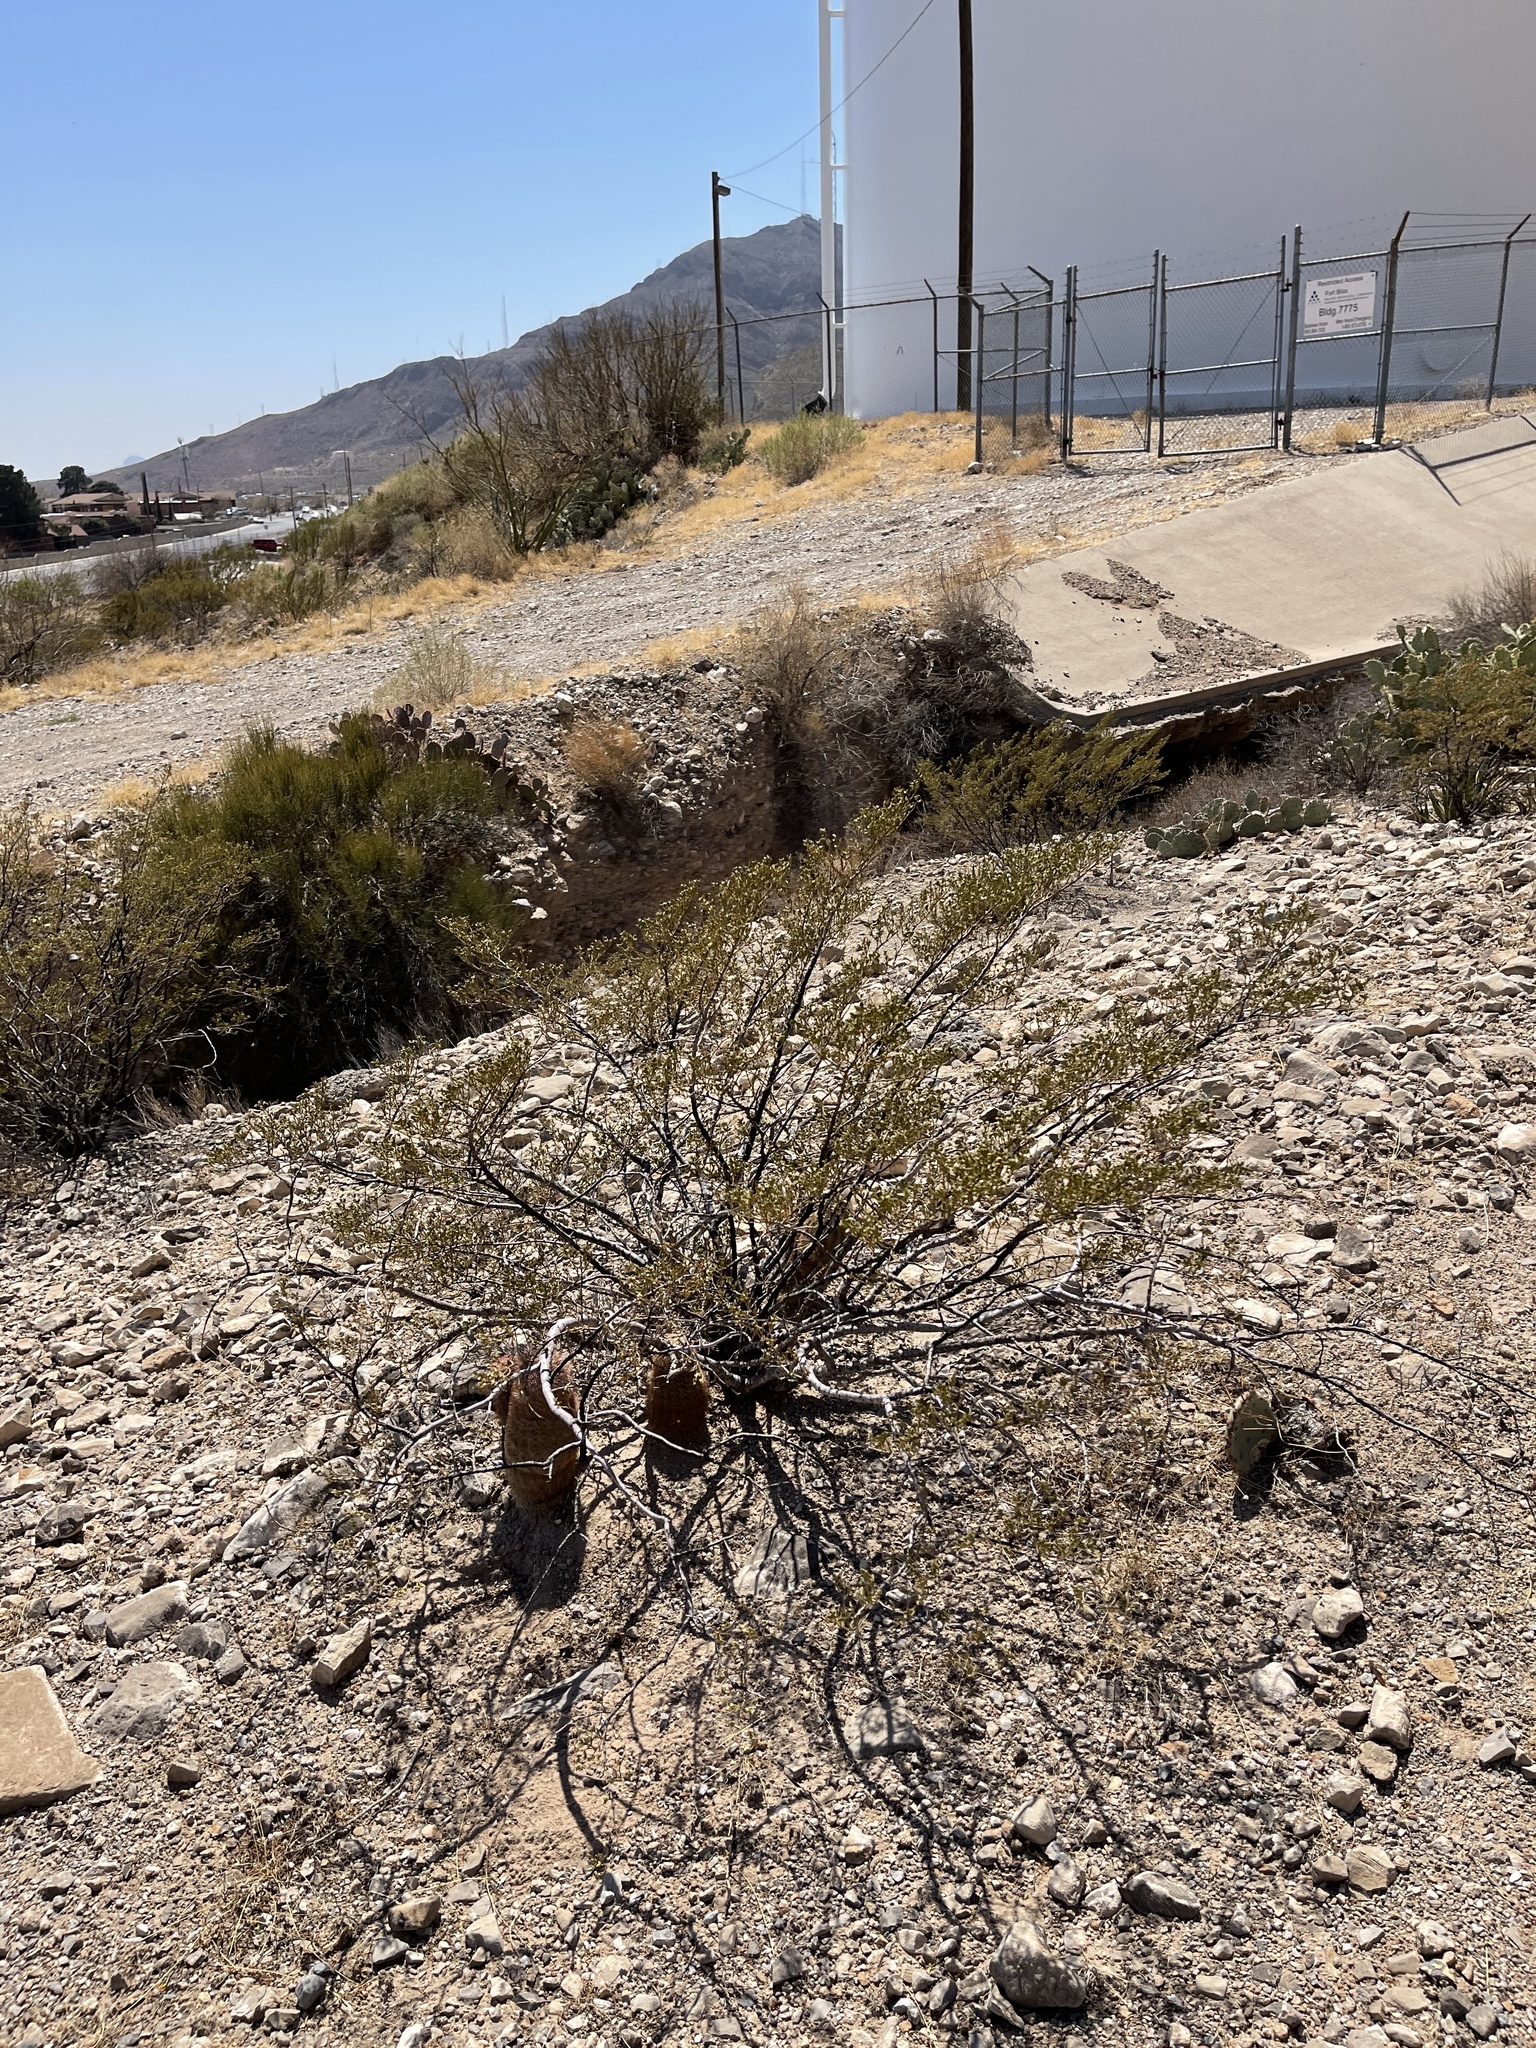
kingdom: Plantae
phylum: Tracheophyta
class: Magnoliopsida
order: Zygophyllales
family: Zygophyllaceae
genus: Larrea
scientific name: Larrea tridentata
